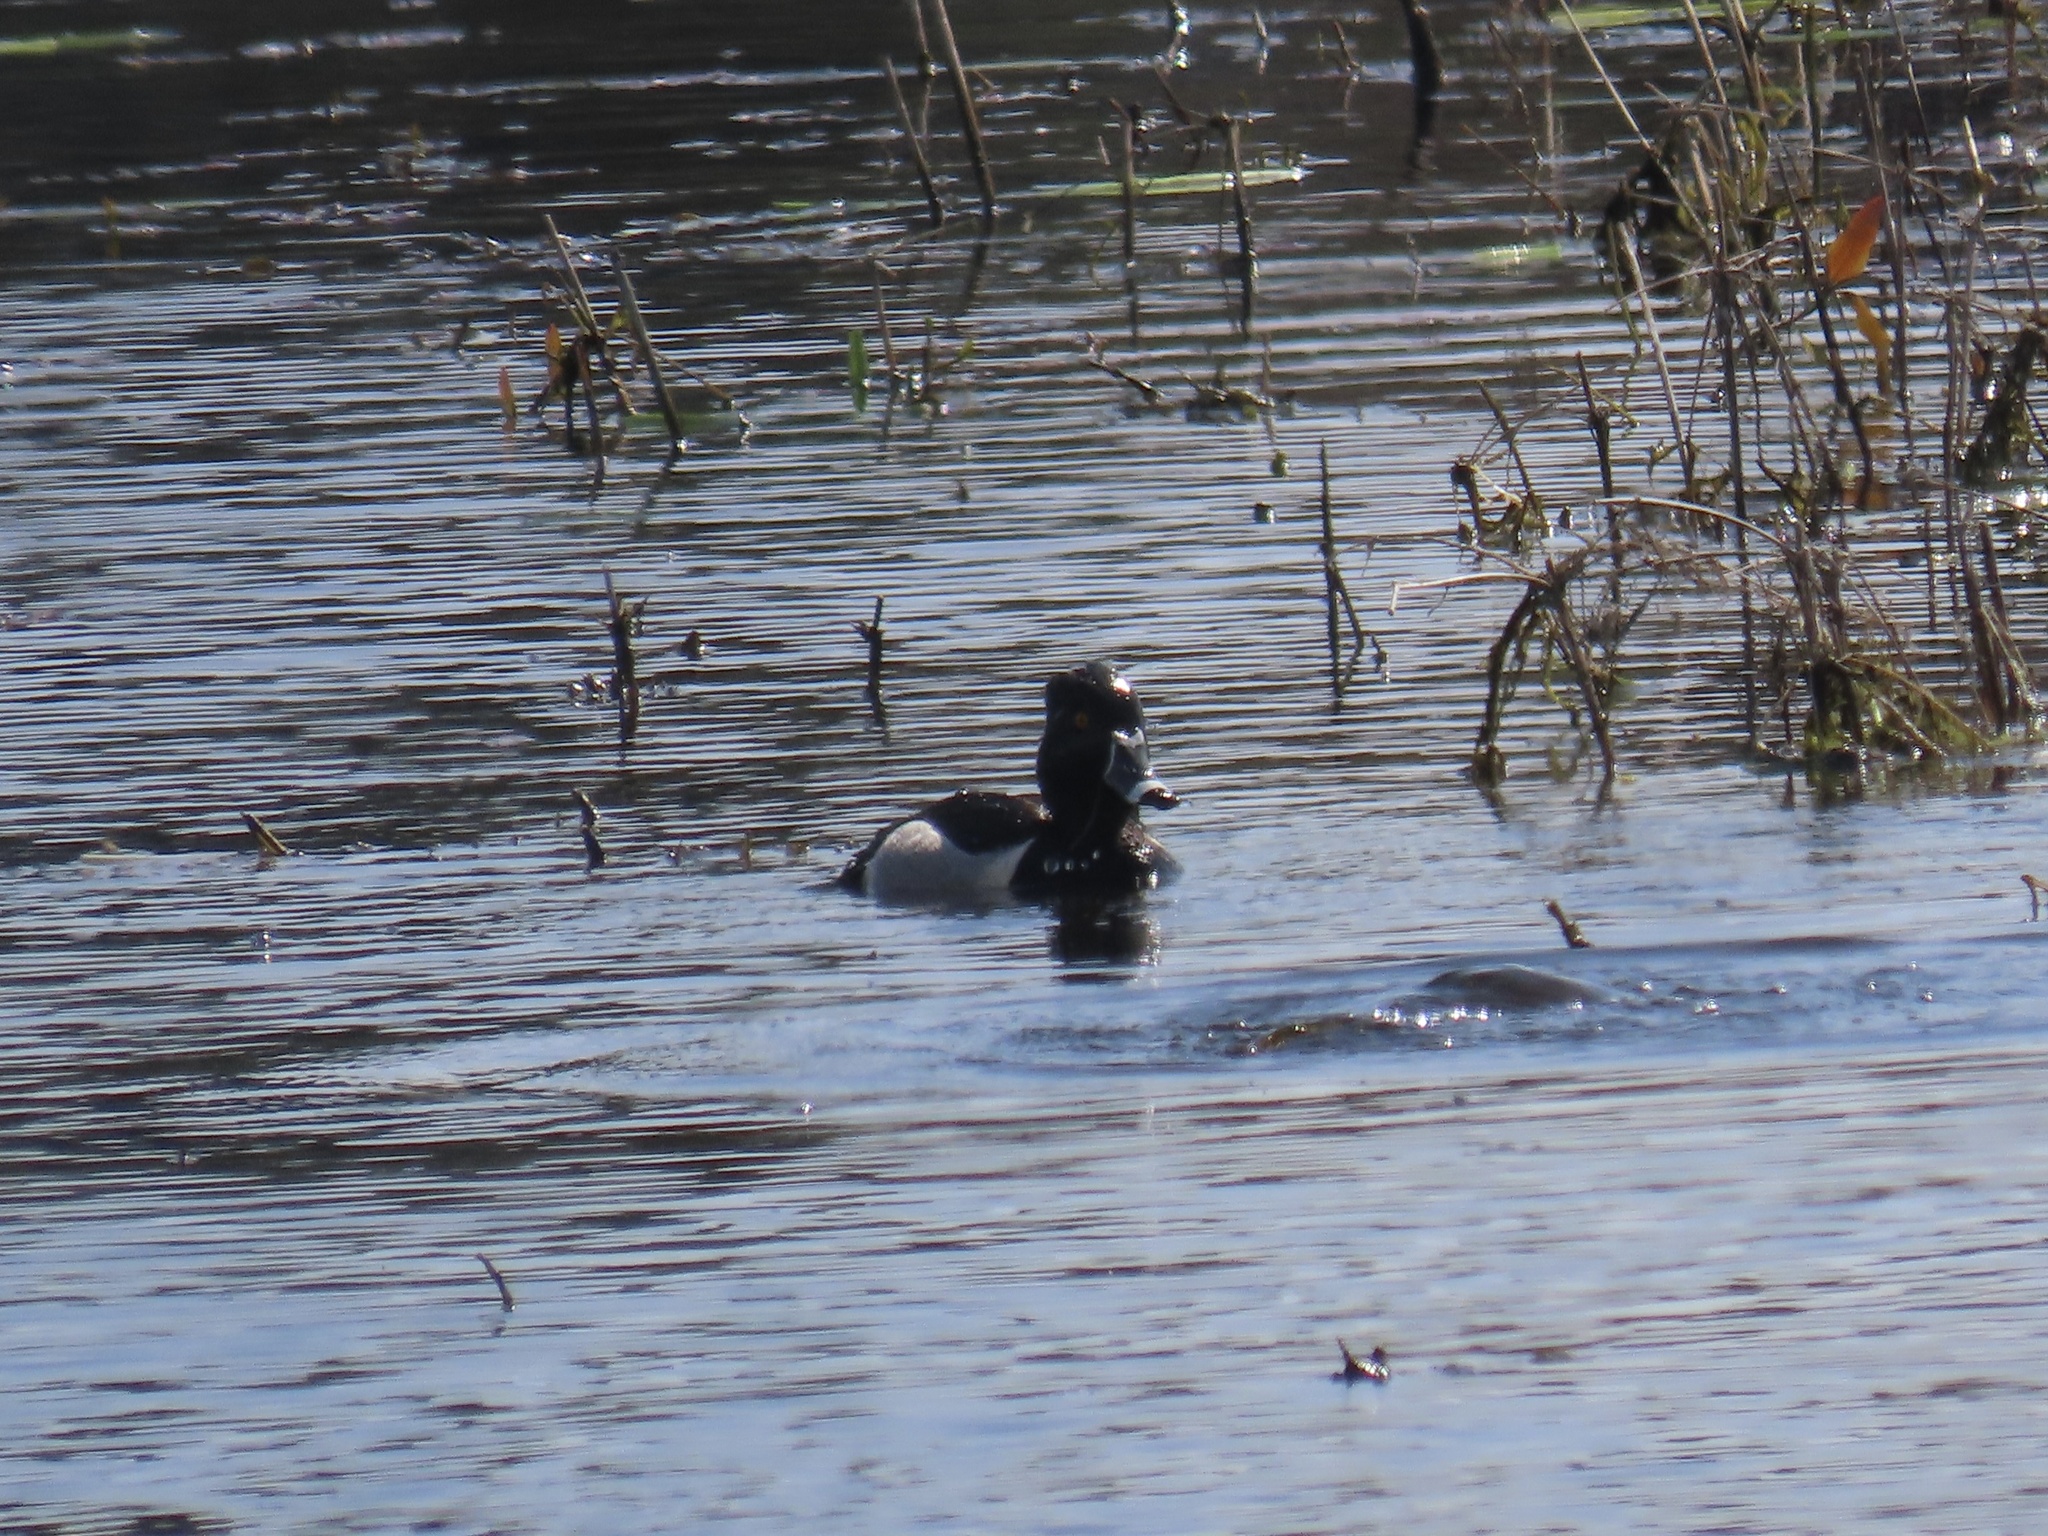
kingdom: Animalia
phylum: Chordata
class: Aves
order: Anseriformes
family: Anatidae
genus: Aythya
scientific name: Aythya collaris
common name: Ring-necked duck
